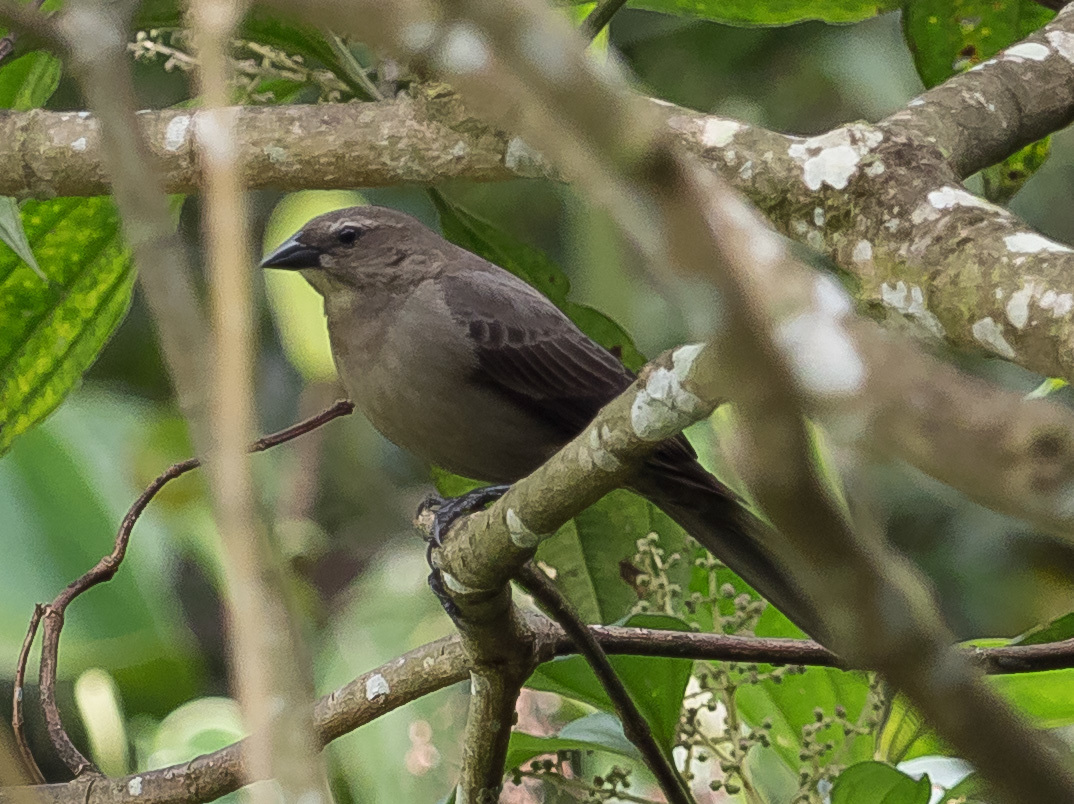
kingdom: Animalia
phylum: Chordata
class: Aves
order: Passeriformes
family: Icteridae
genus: Molothrus
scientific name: Molothrus bonariensis
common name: Shiny cowbird
